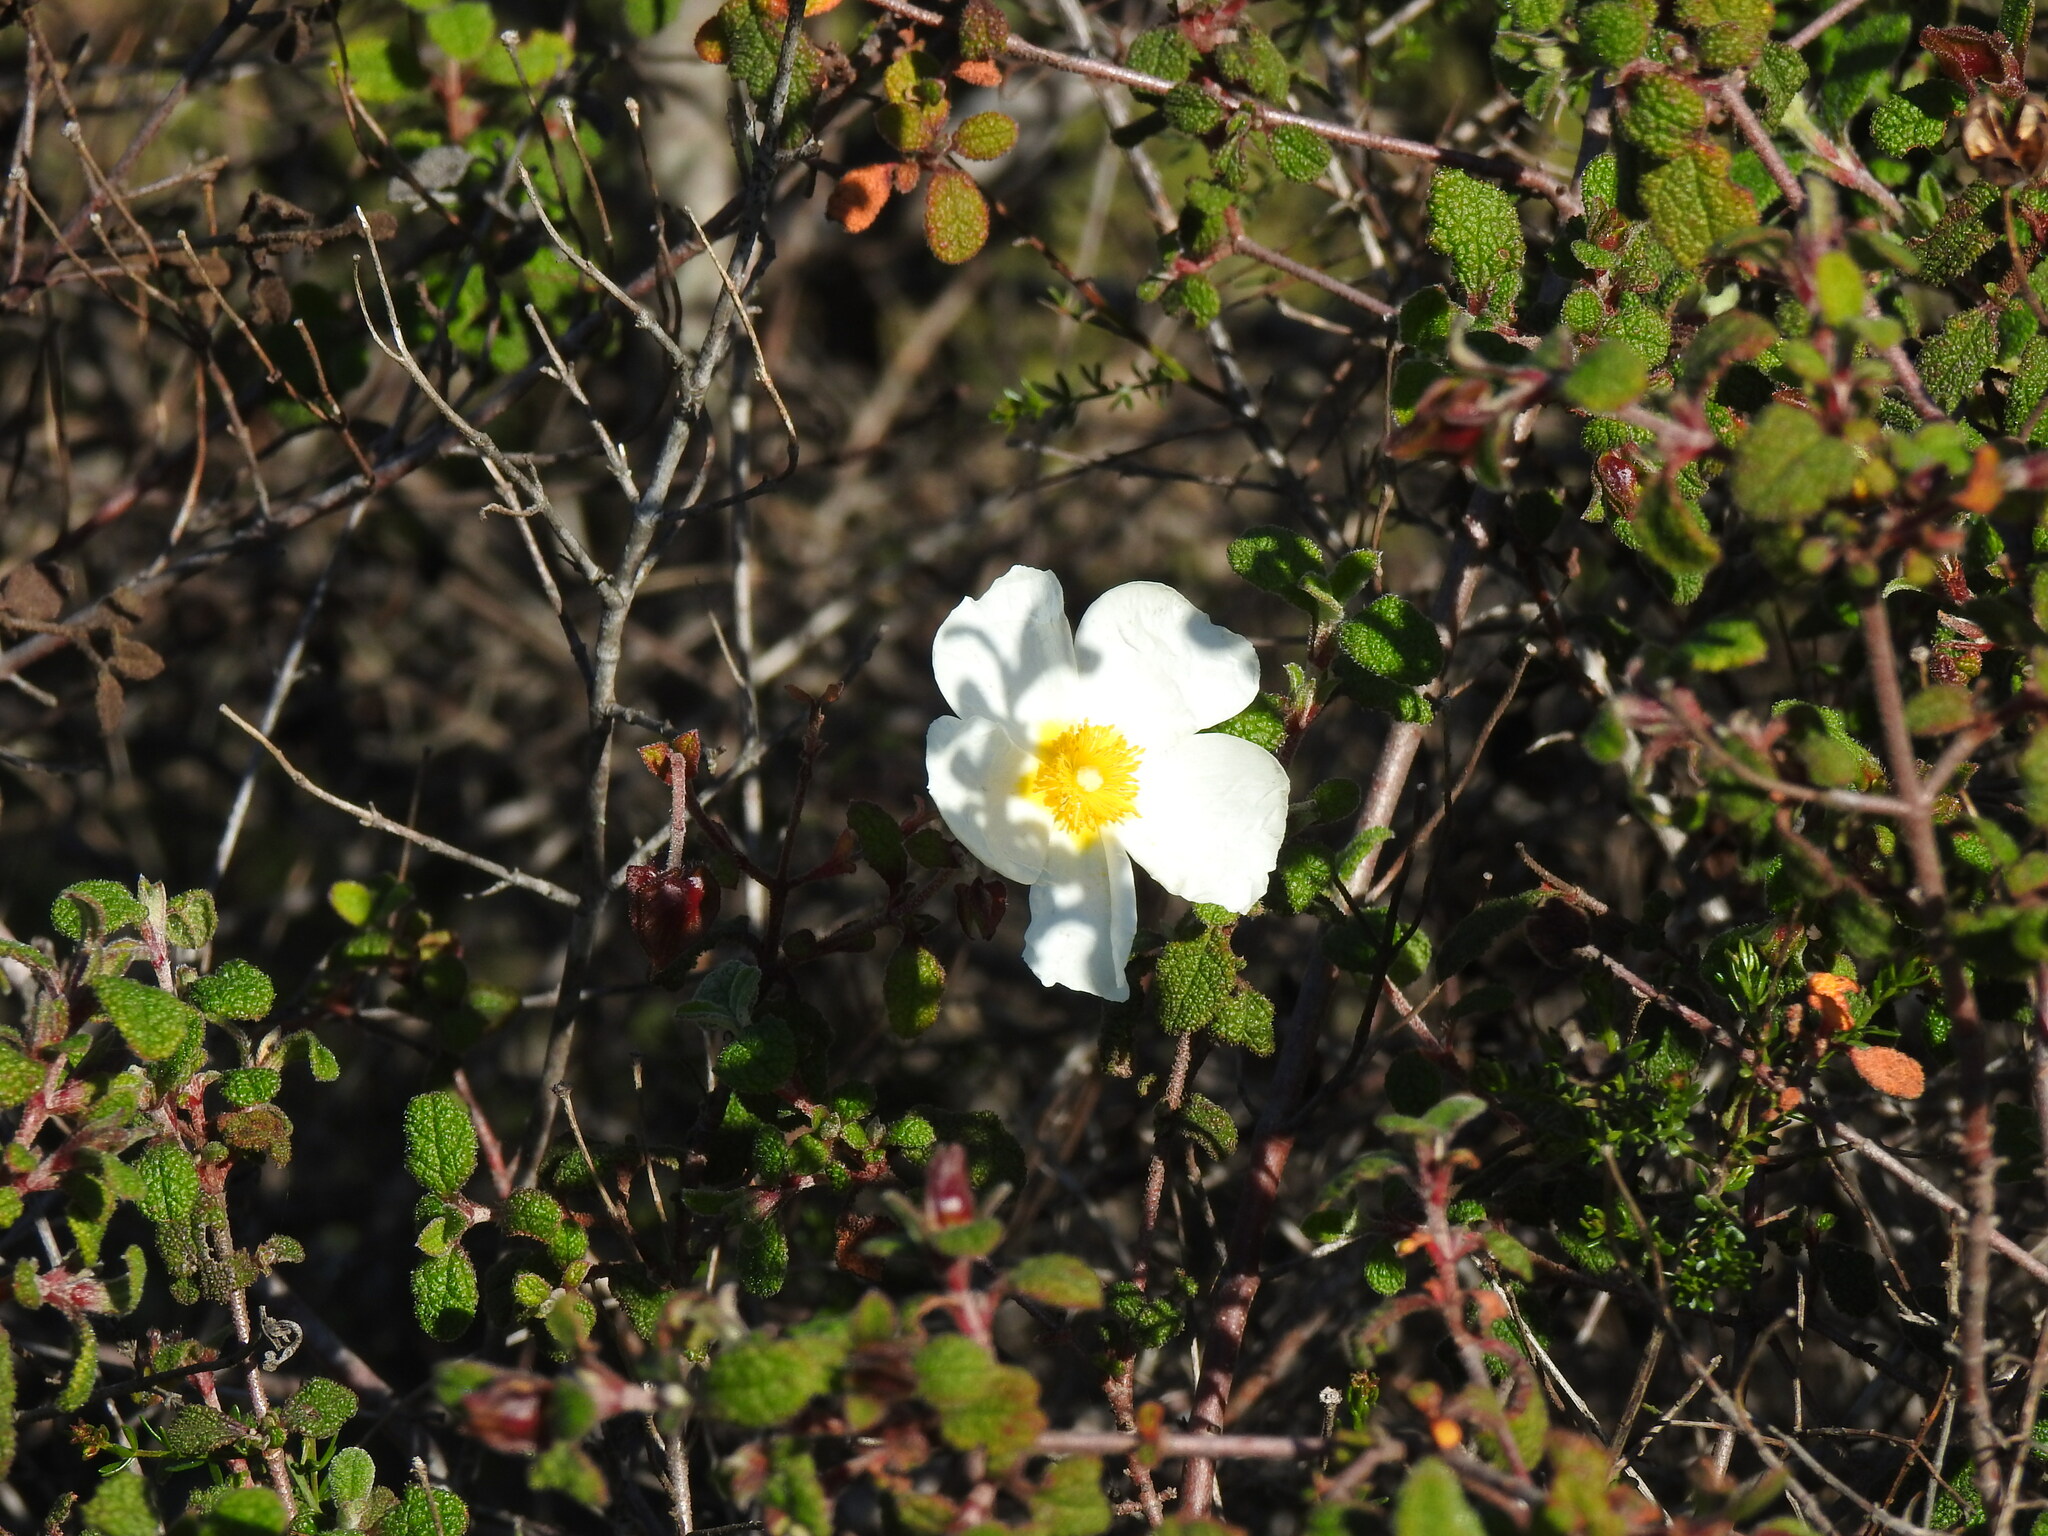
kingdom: Plantae
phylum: Tracheophyta
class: Magnoliopsida
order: Malvales
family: Cistaceae
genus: Cistus
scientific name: Cistus salviifolius
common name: Salvia cistus
